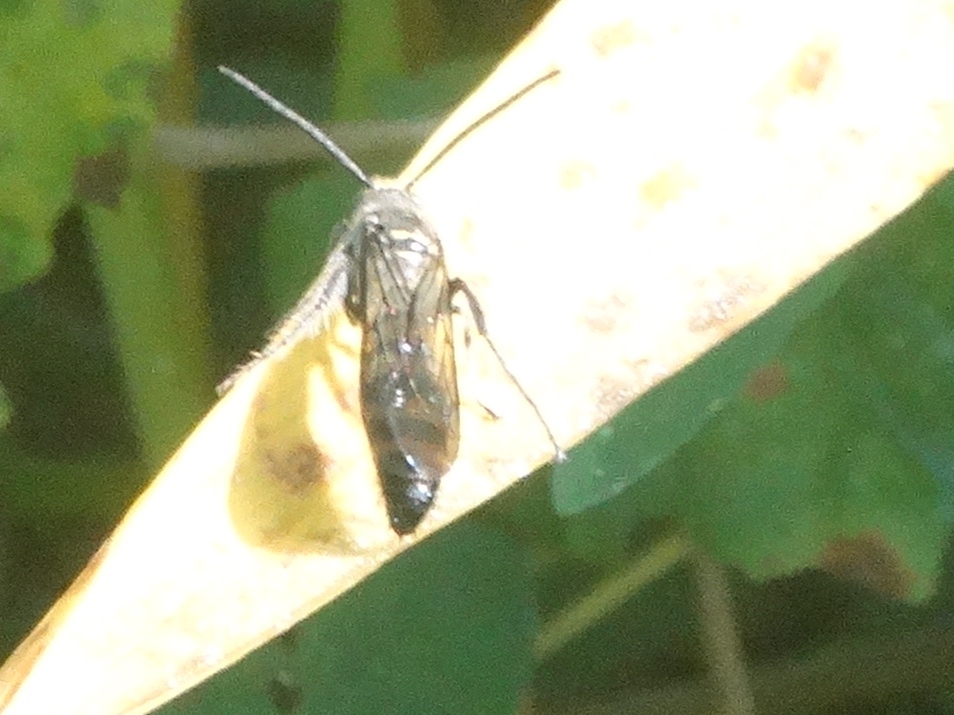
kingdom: Animalia
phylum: Arthropoda
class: Insecta
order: Hymenoptera
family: Scoliidae
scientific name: Scoliidae
